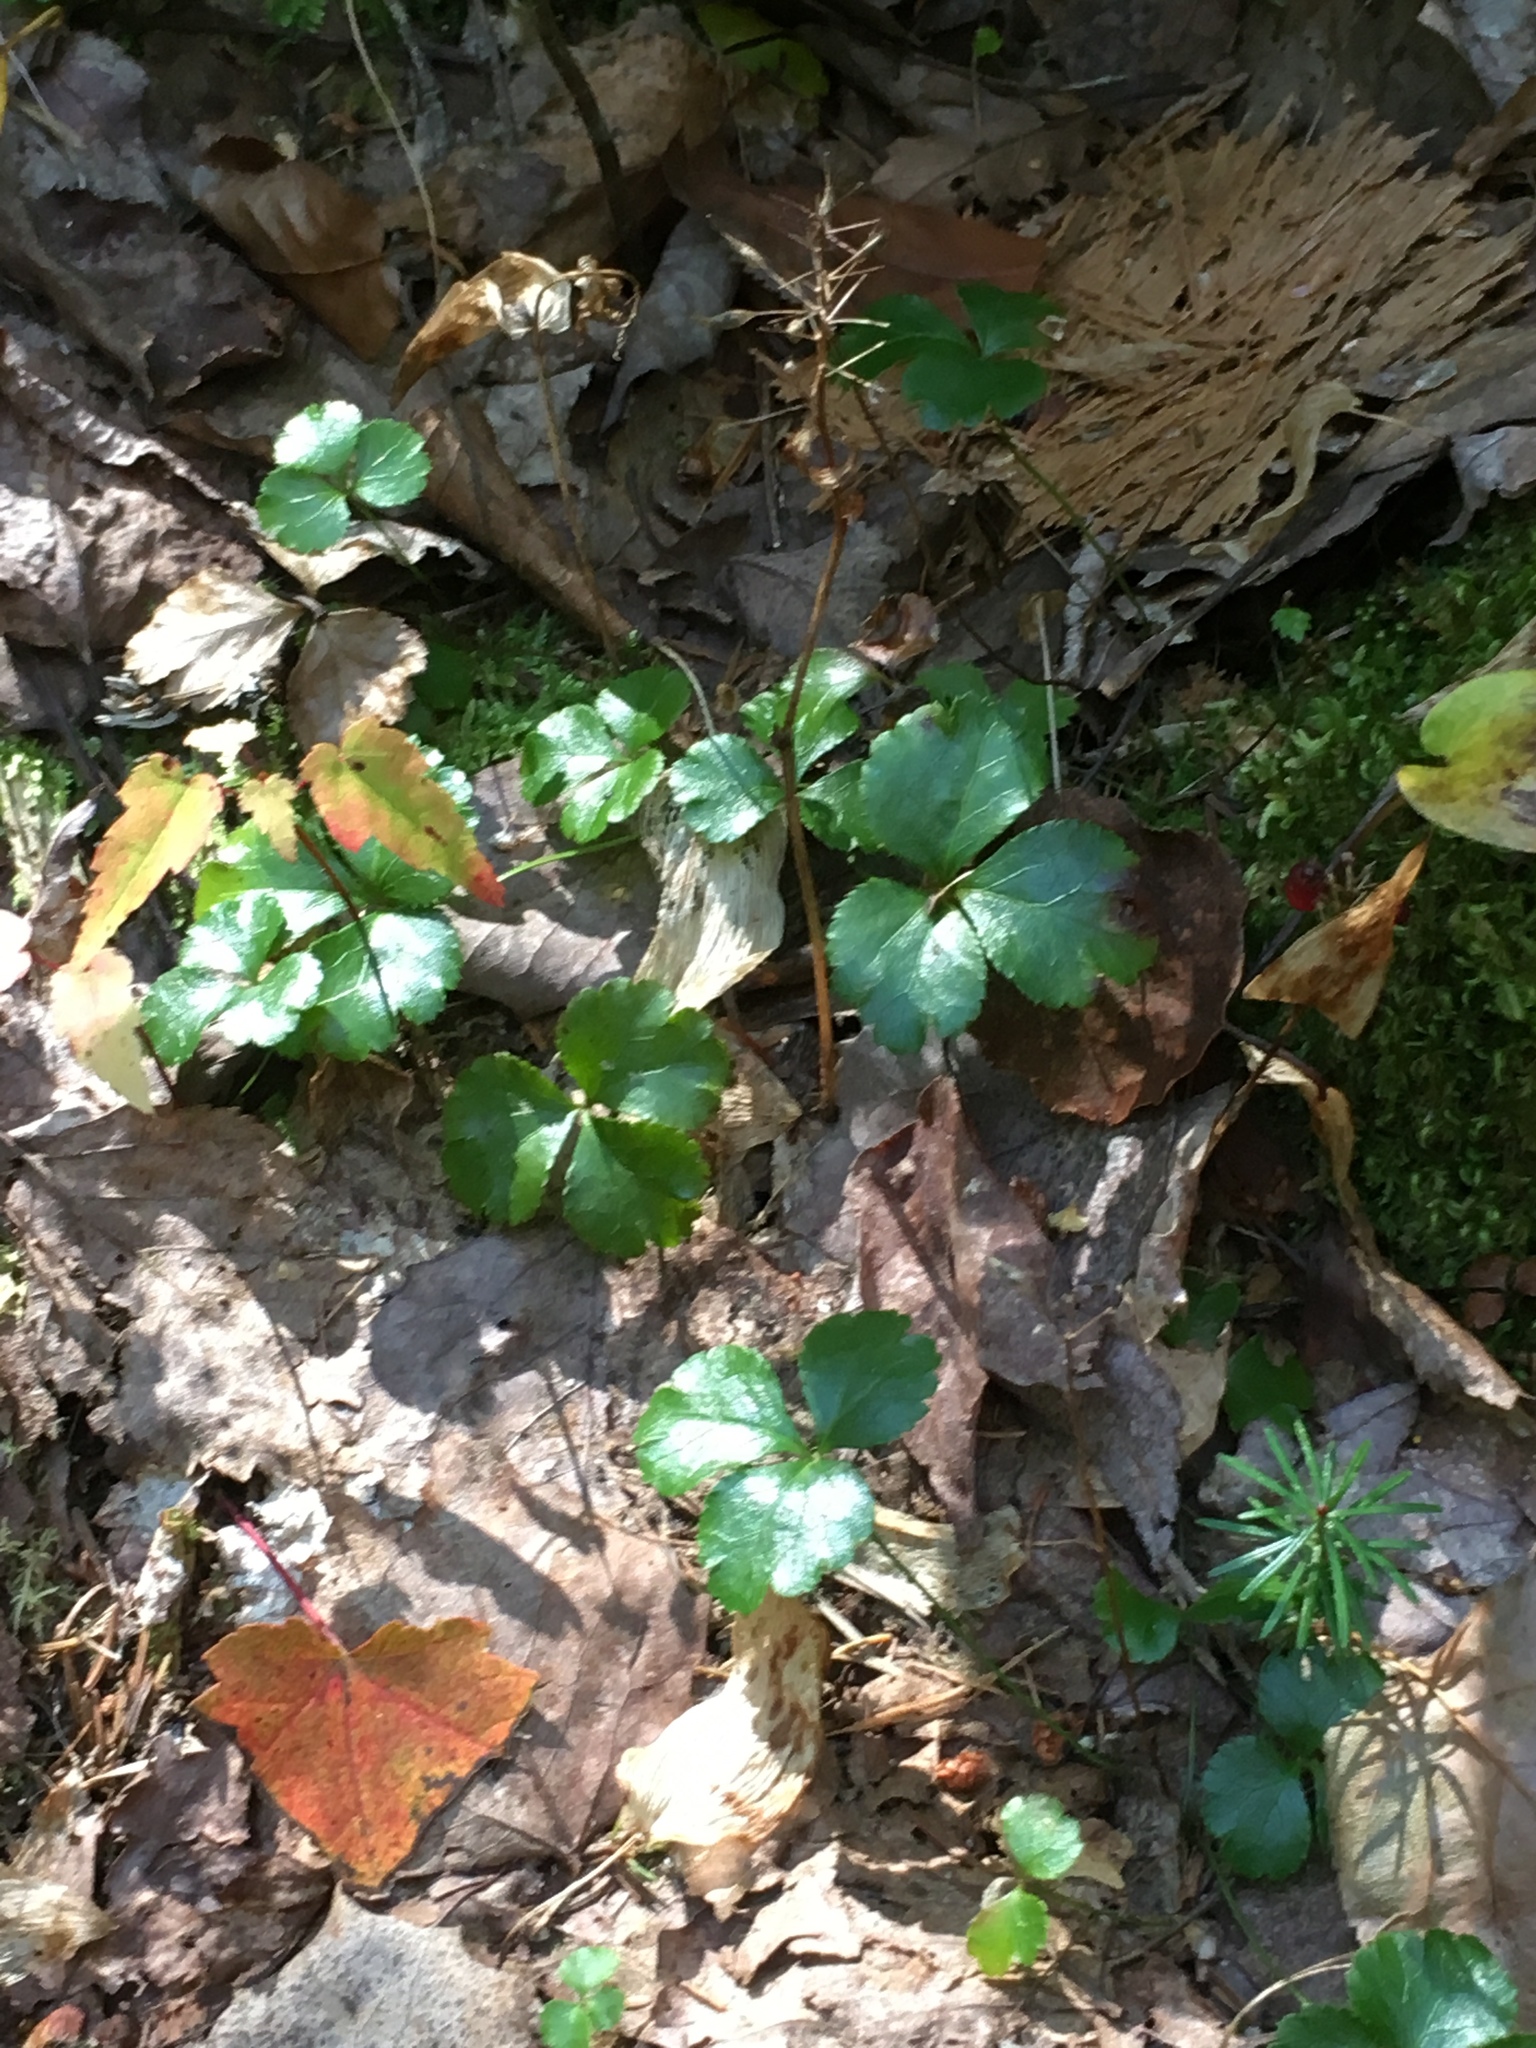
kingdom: Plantae
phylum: Tracheophyta
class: Magnoliopsida
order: Ranunculales
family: Ranunculaceae
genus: Coptis
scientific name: Coptis trifolia
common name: Canker-root
